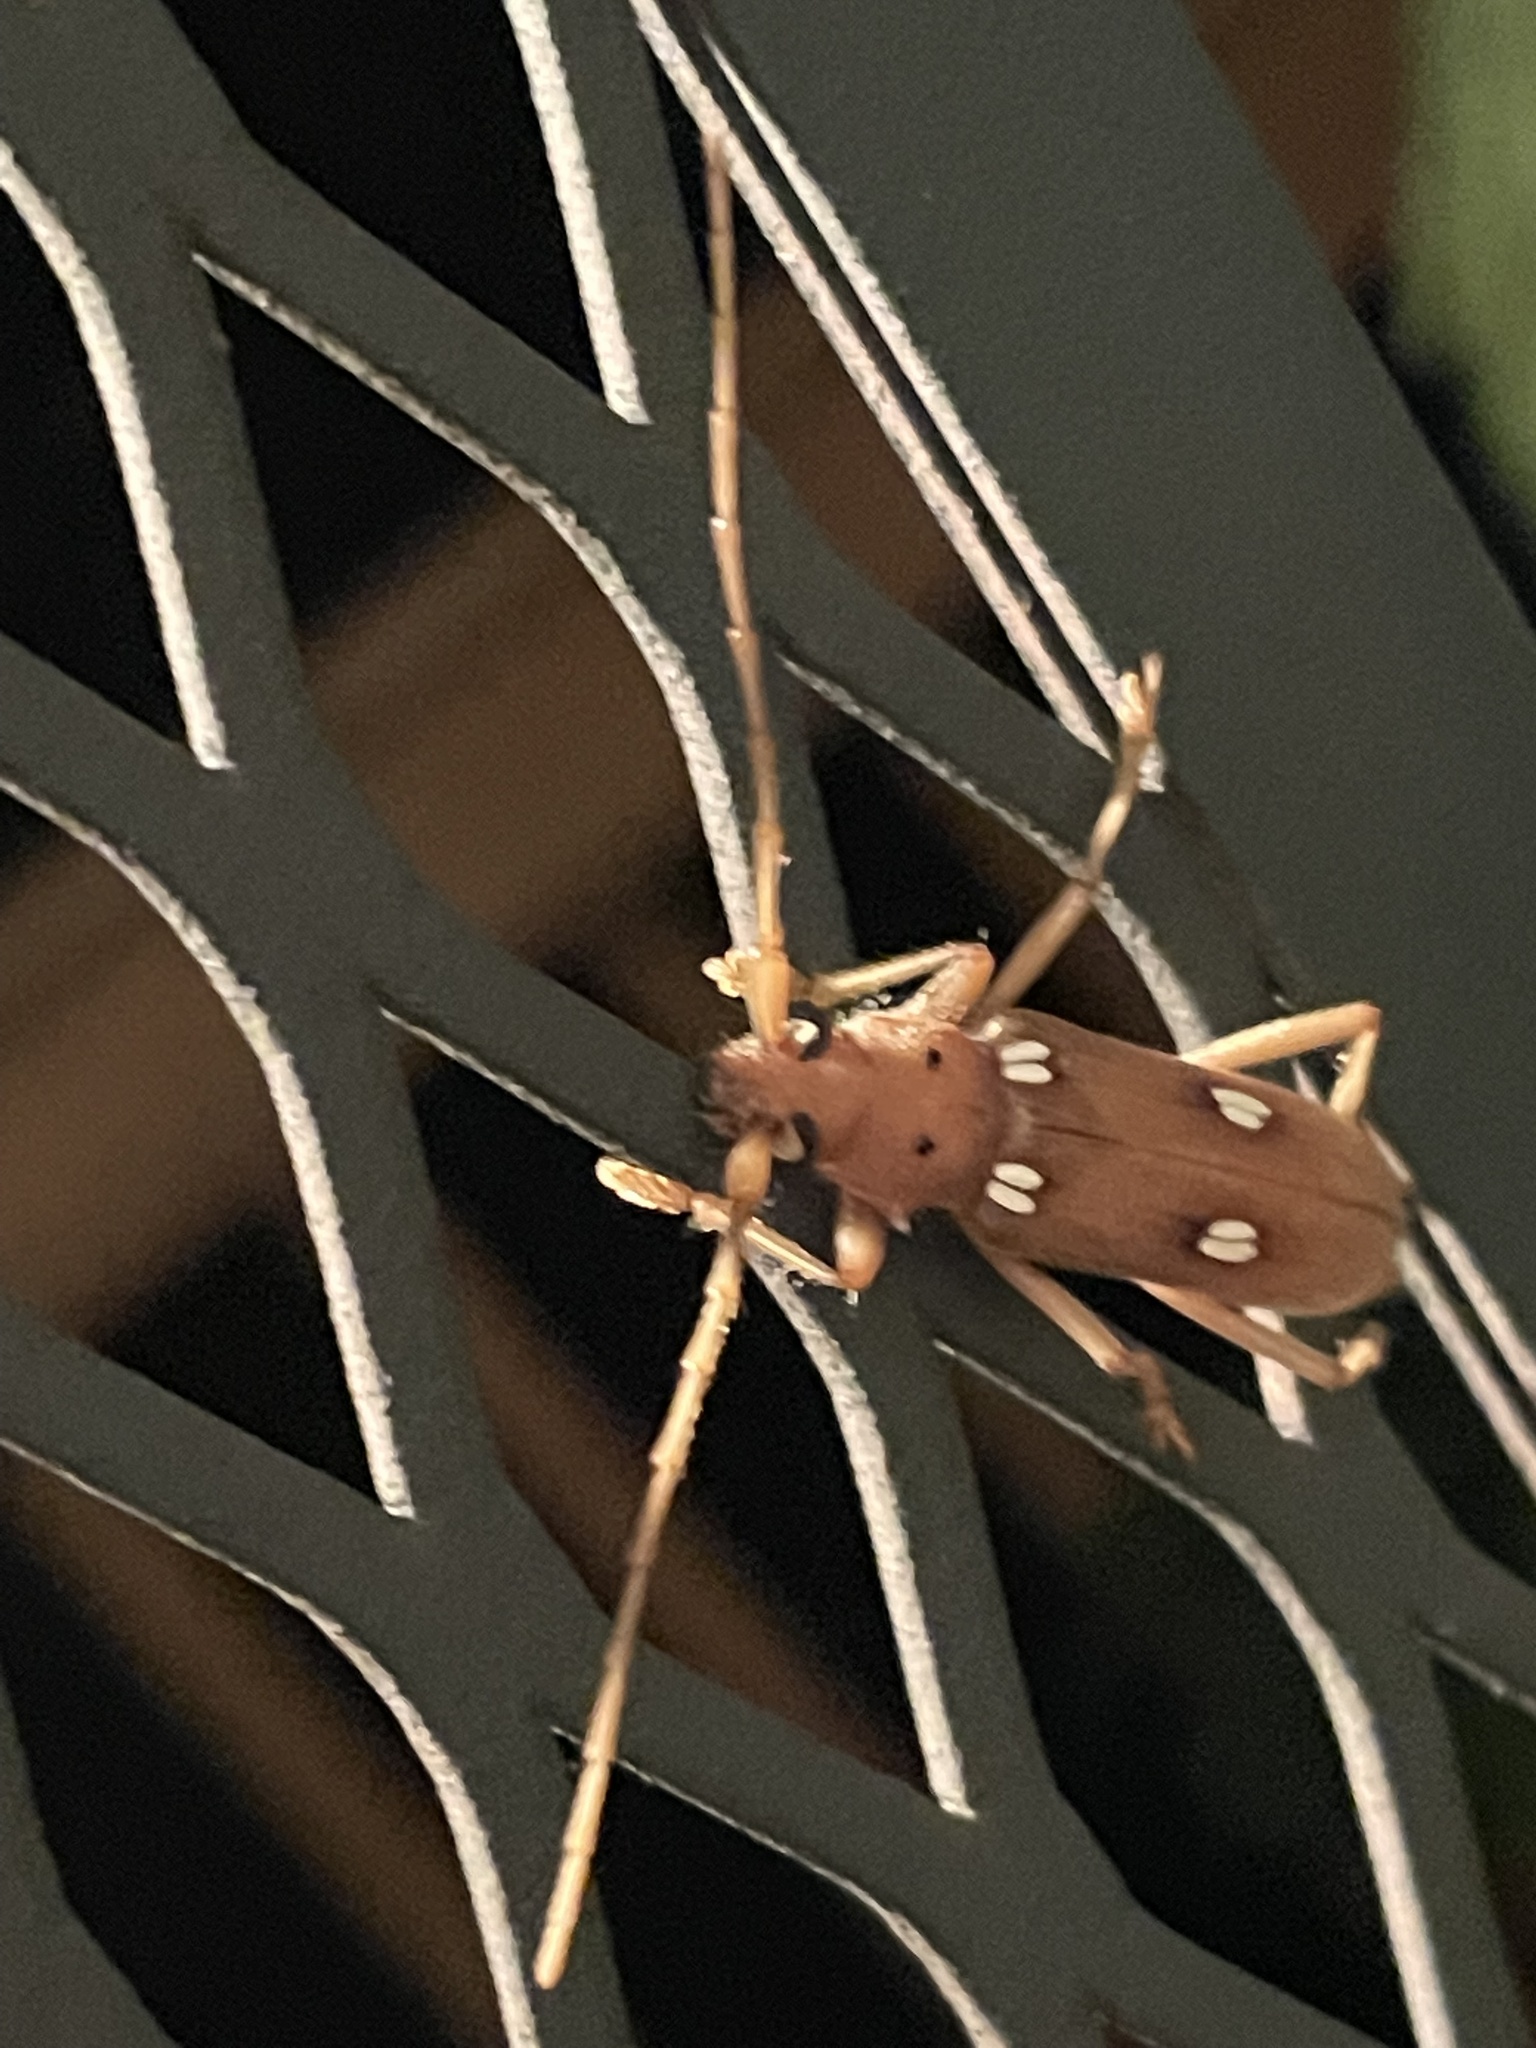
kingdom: Animalia
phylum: Arthropoda
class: Insecta
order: Coleoptera
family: Cerambycidae
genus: Eburia
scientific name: Eburia quadrigeminata
